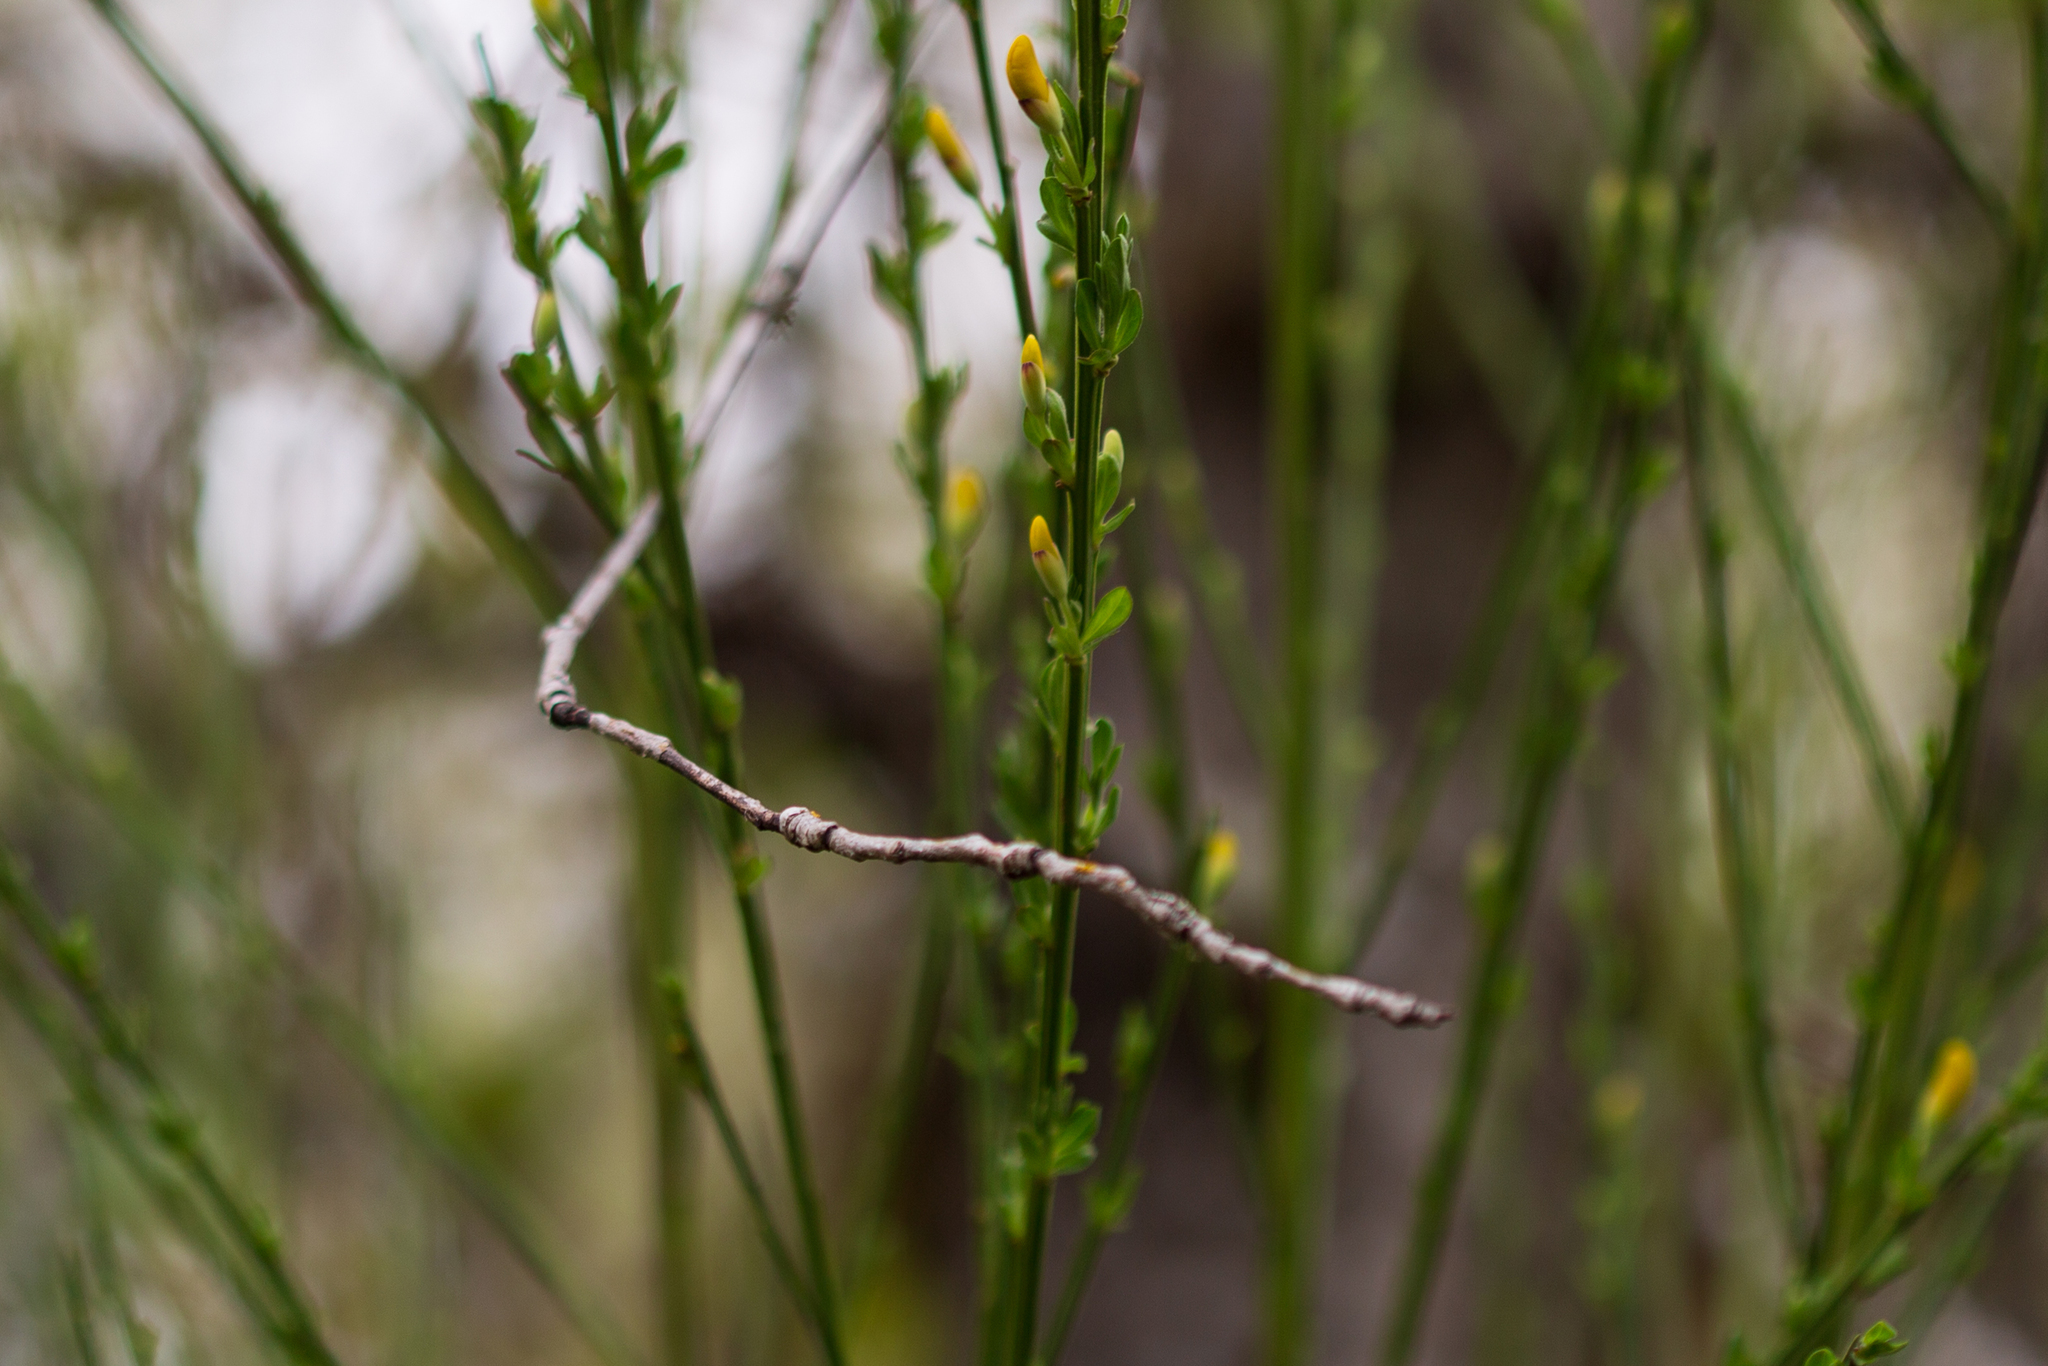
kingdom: Plantae
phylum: Tracheophyta
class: Magnoliopsida
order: Fabales
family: Fabaceae
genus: Cytisus
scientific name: Cytisus scoparius
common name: Scotch broom
